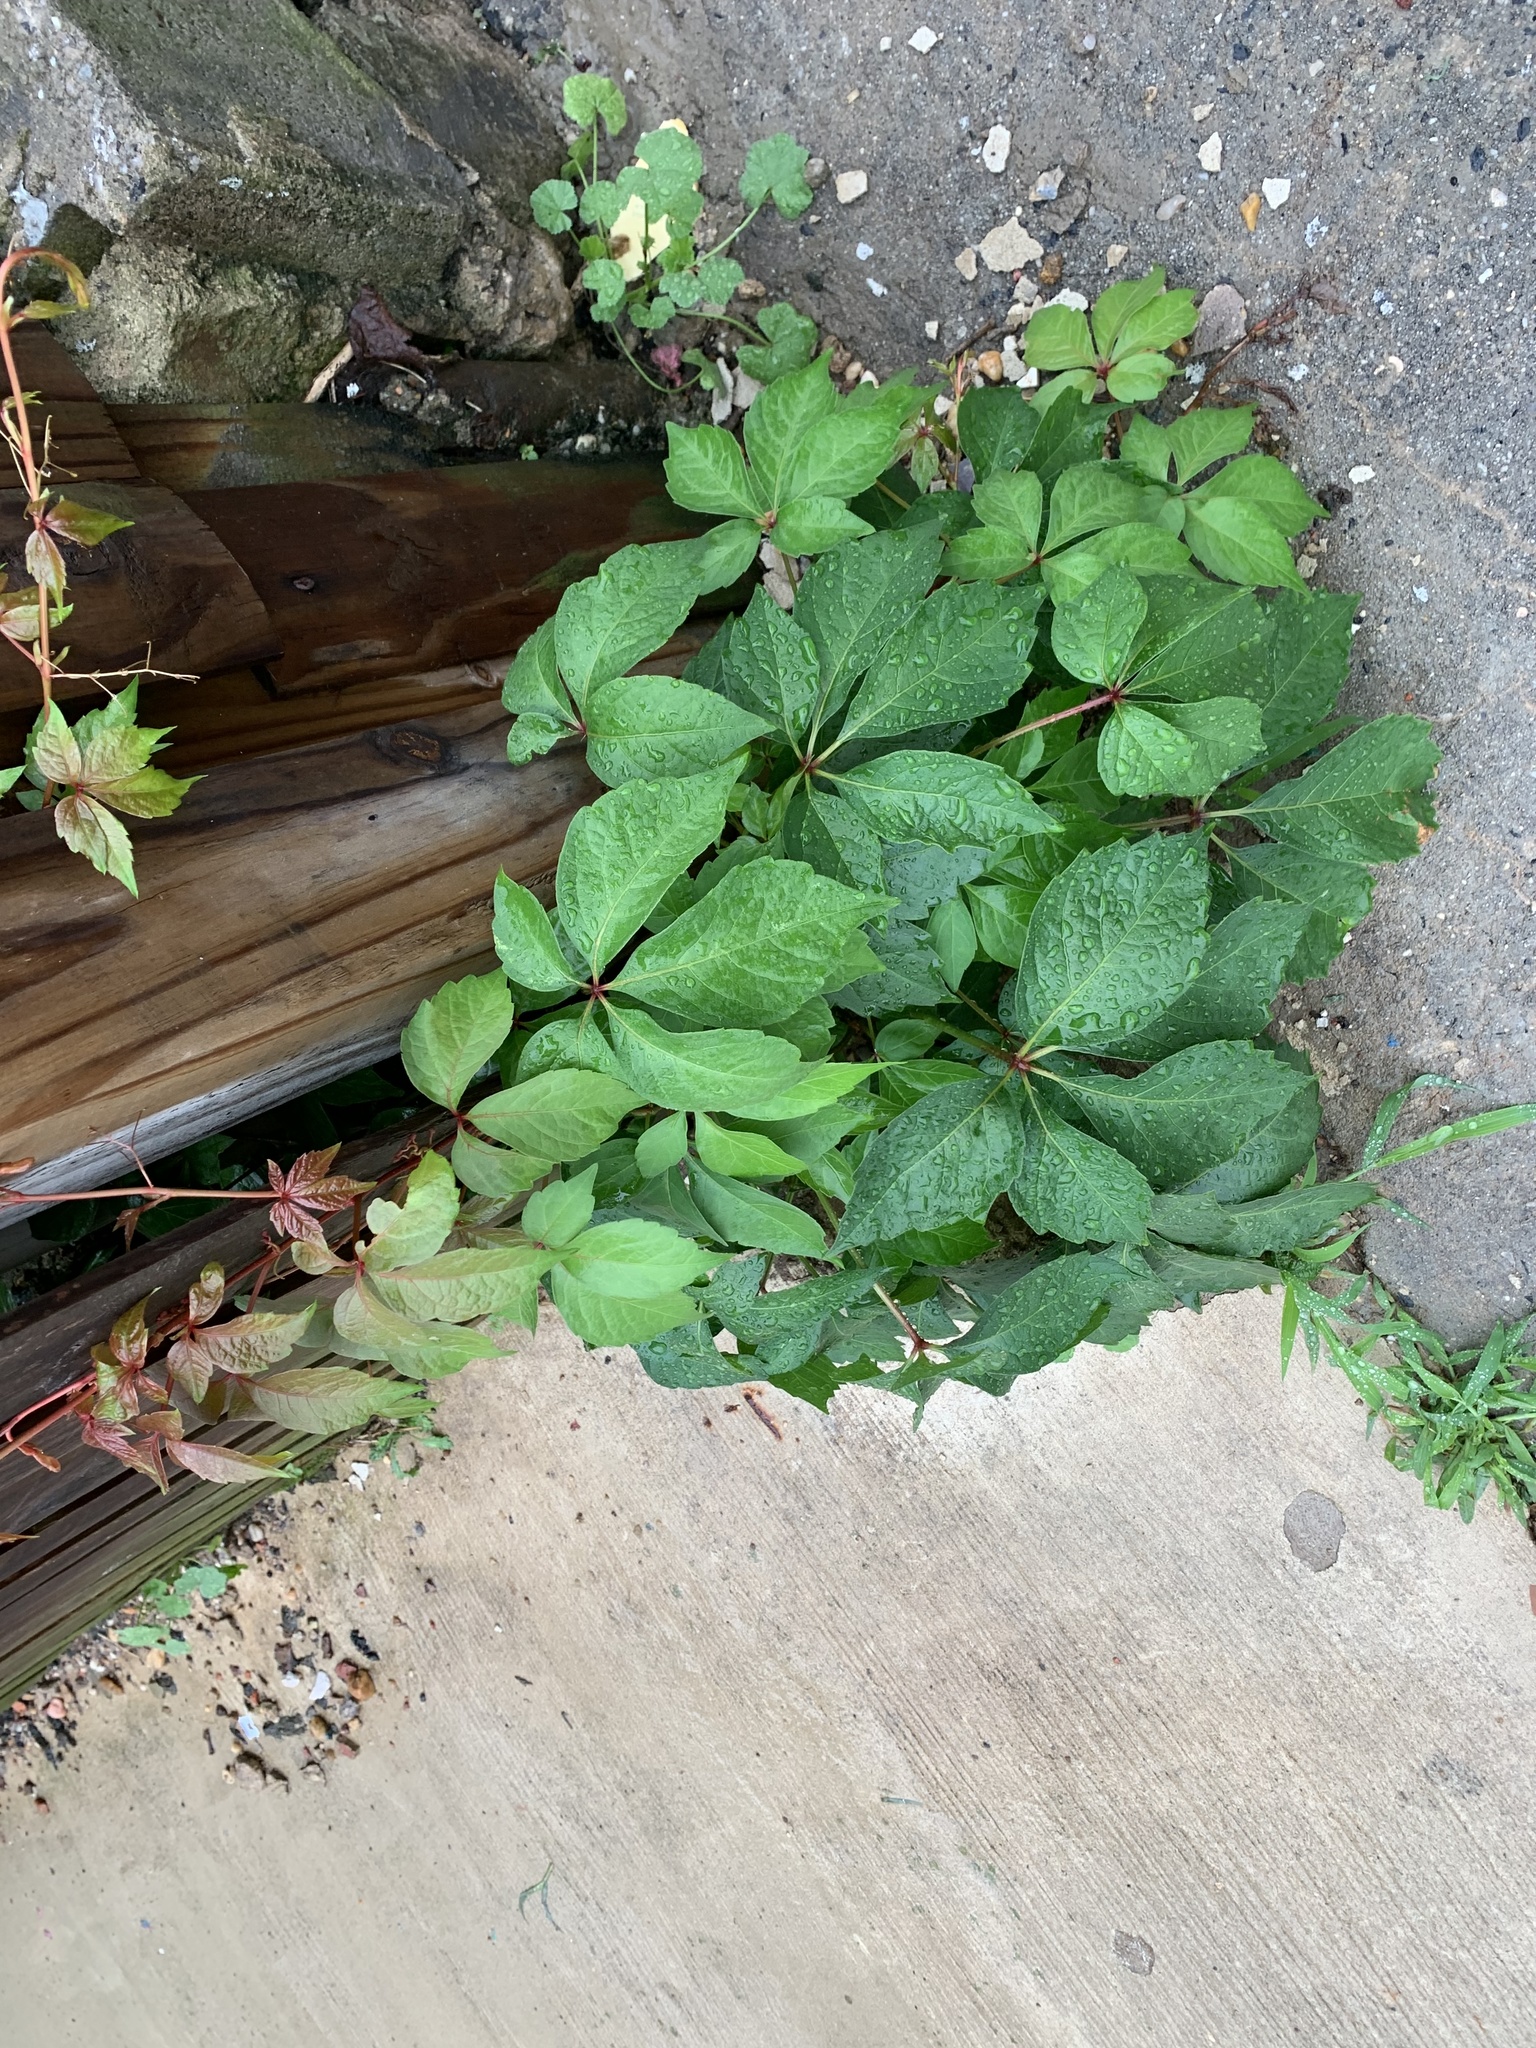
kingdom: Plantae
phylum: Tracheophyta
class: Magnoliopsida
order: Vitales
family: Vitaceae
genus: Parthenocissus
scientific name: Parthenocissus quinquefolia
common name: Virginia-creeper
